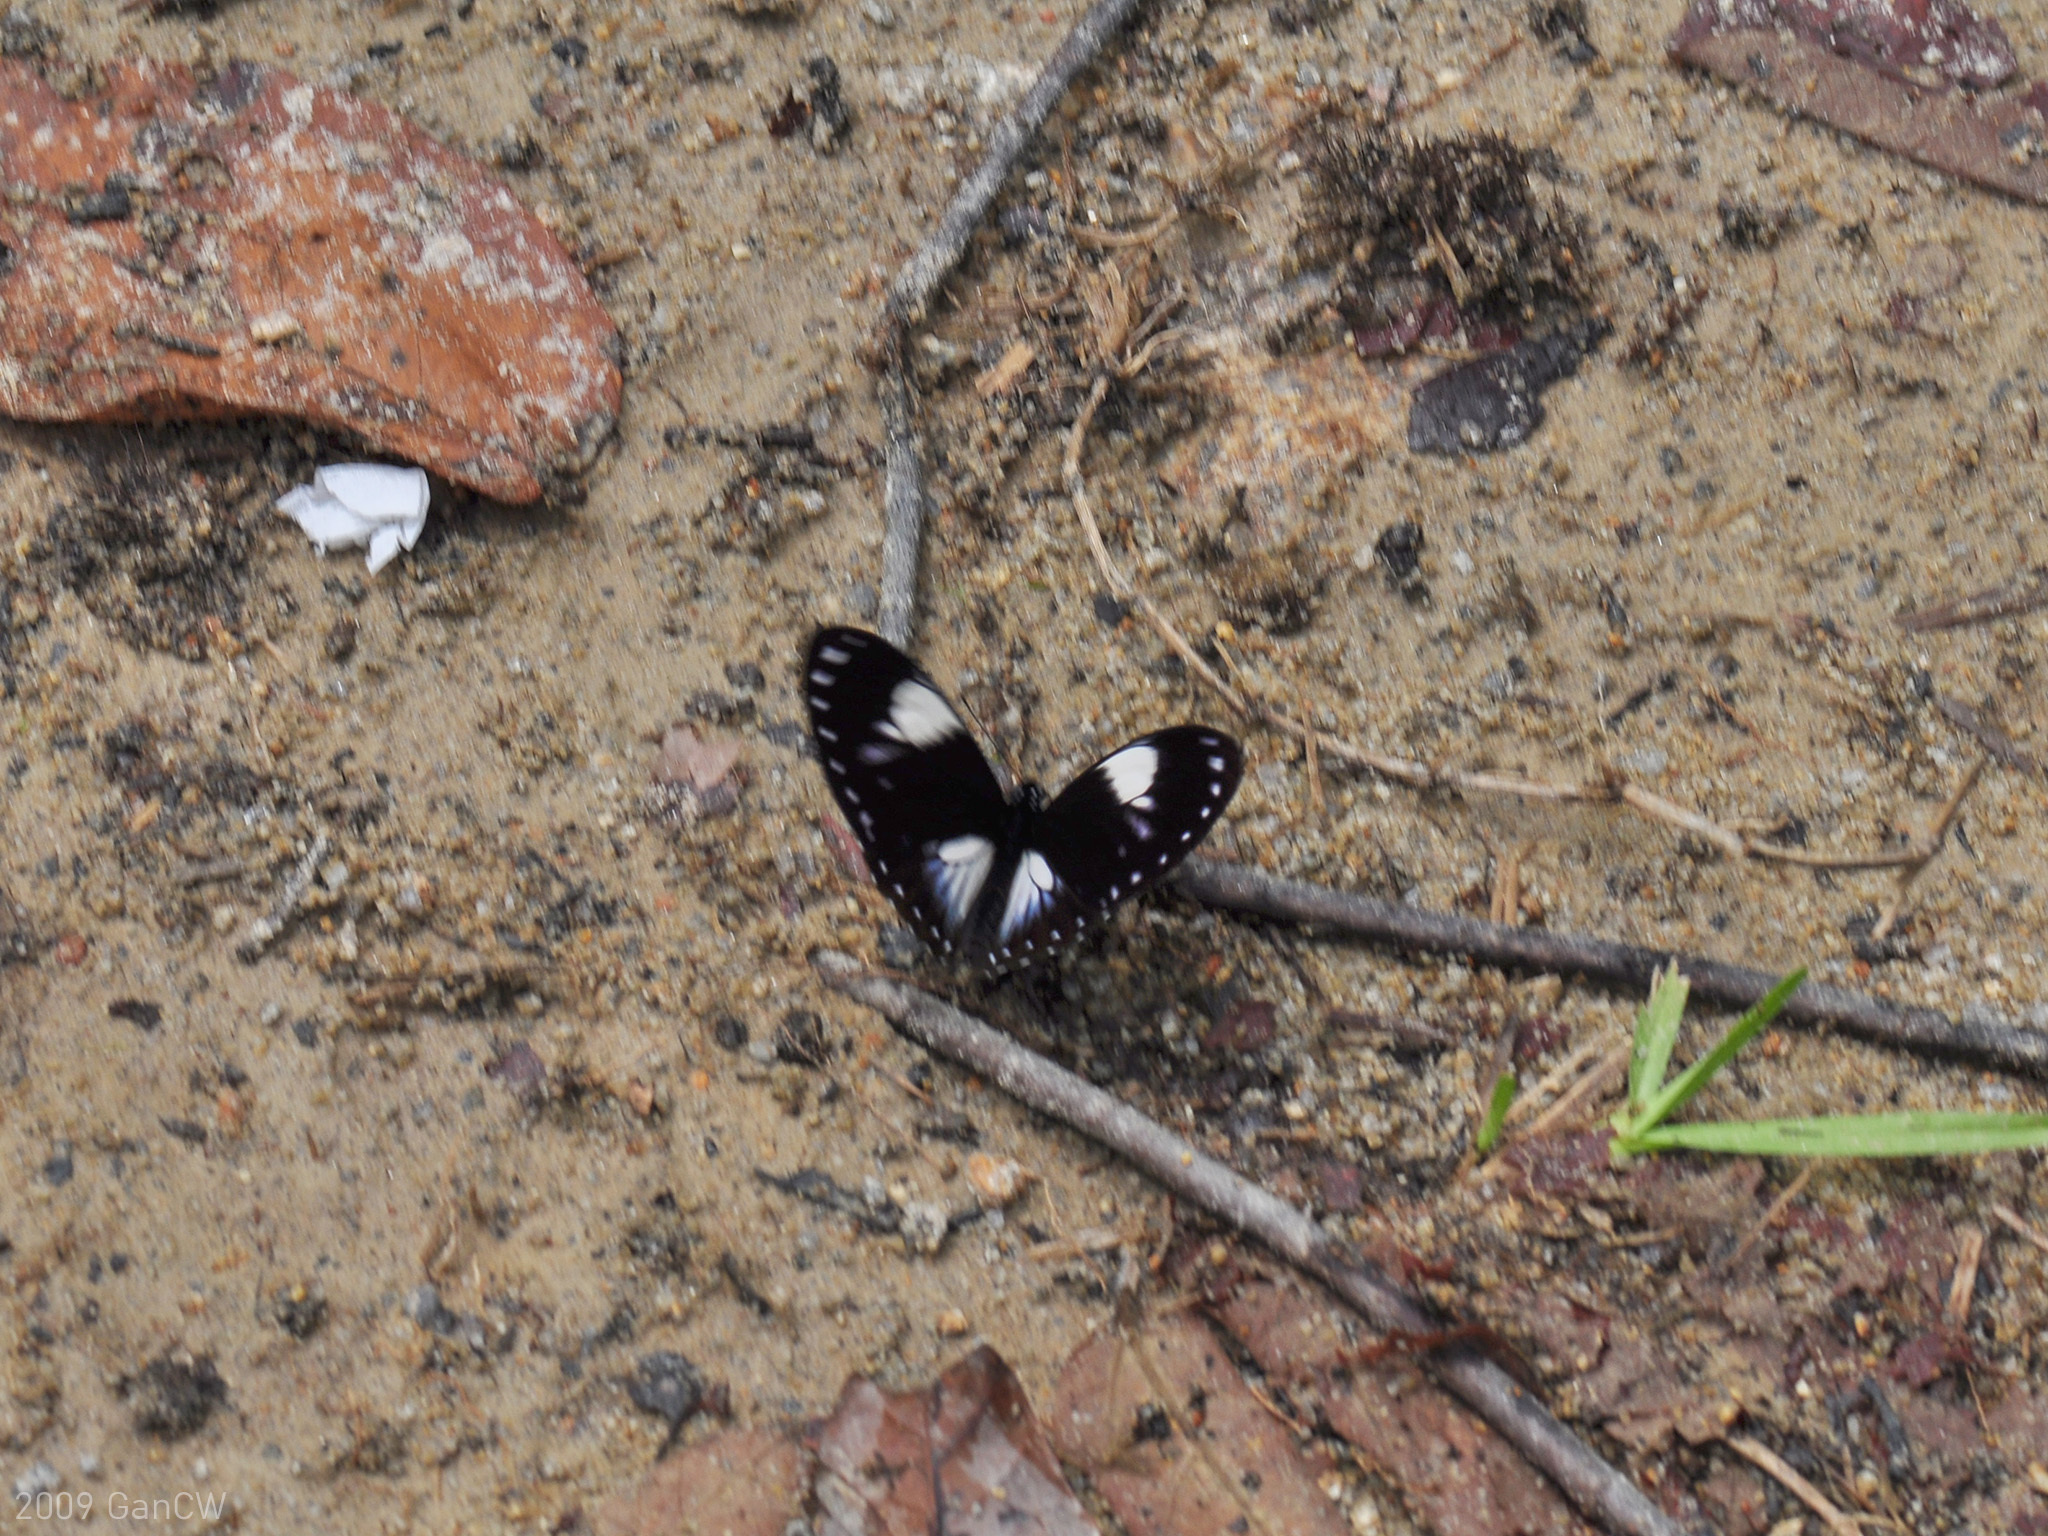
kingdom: Animalia
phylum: Arthropoda
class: Insecta
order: Lepidoptera
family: Papilionidae
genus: Papilio
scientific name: Papilio paradoxa
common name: Great blue mime swallowtail
